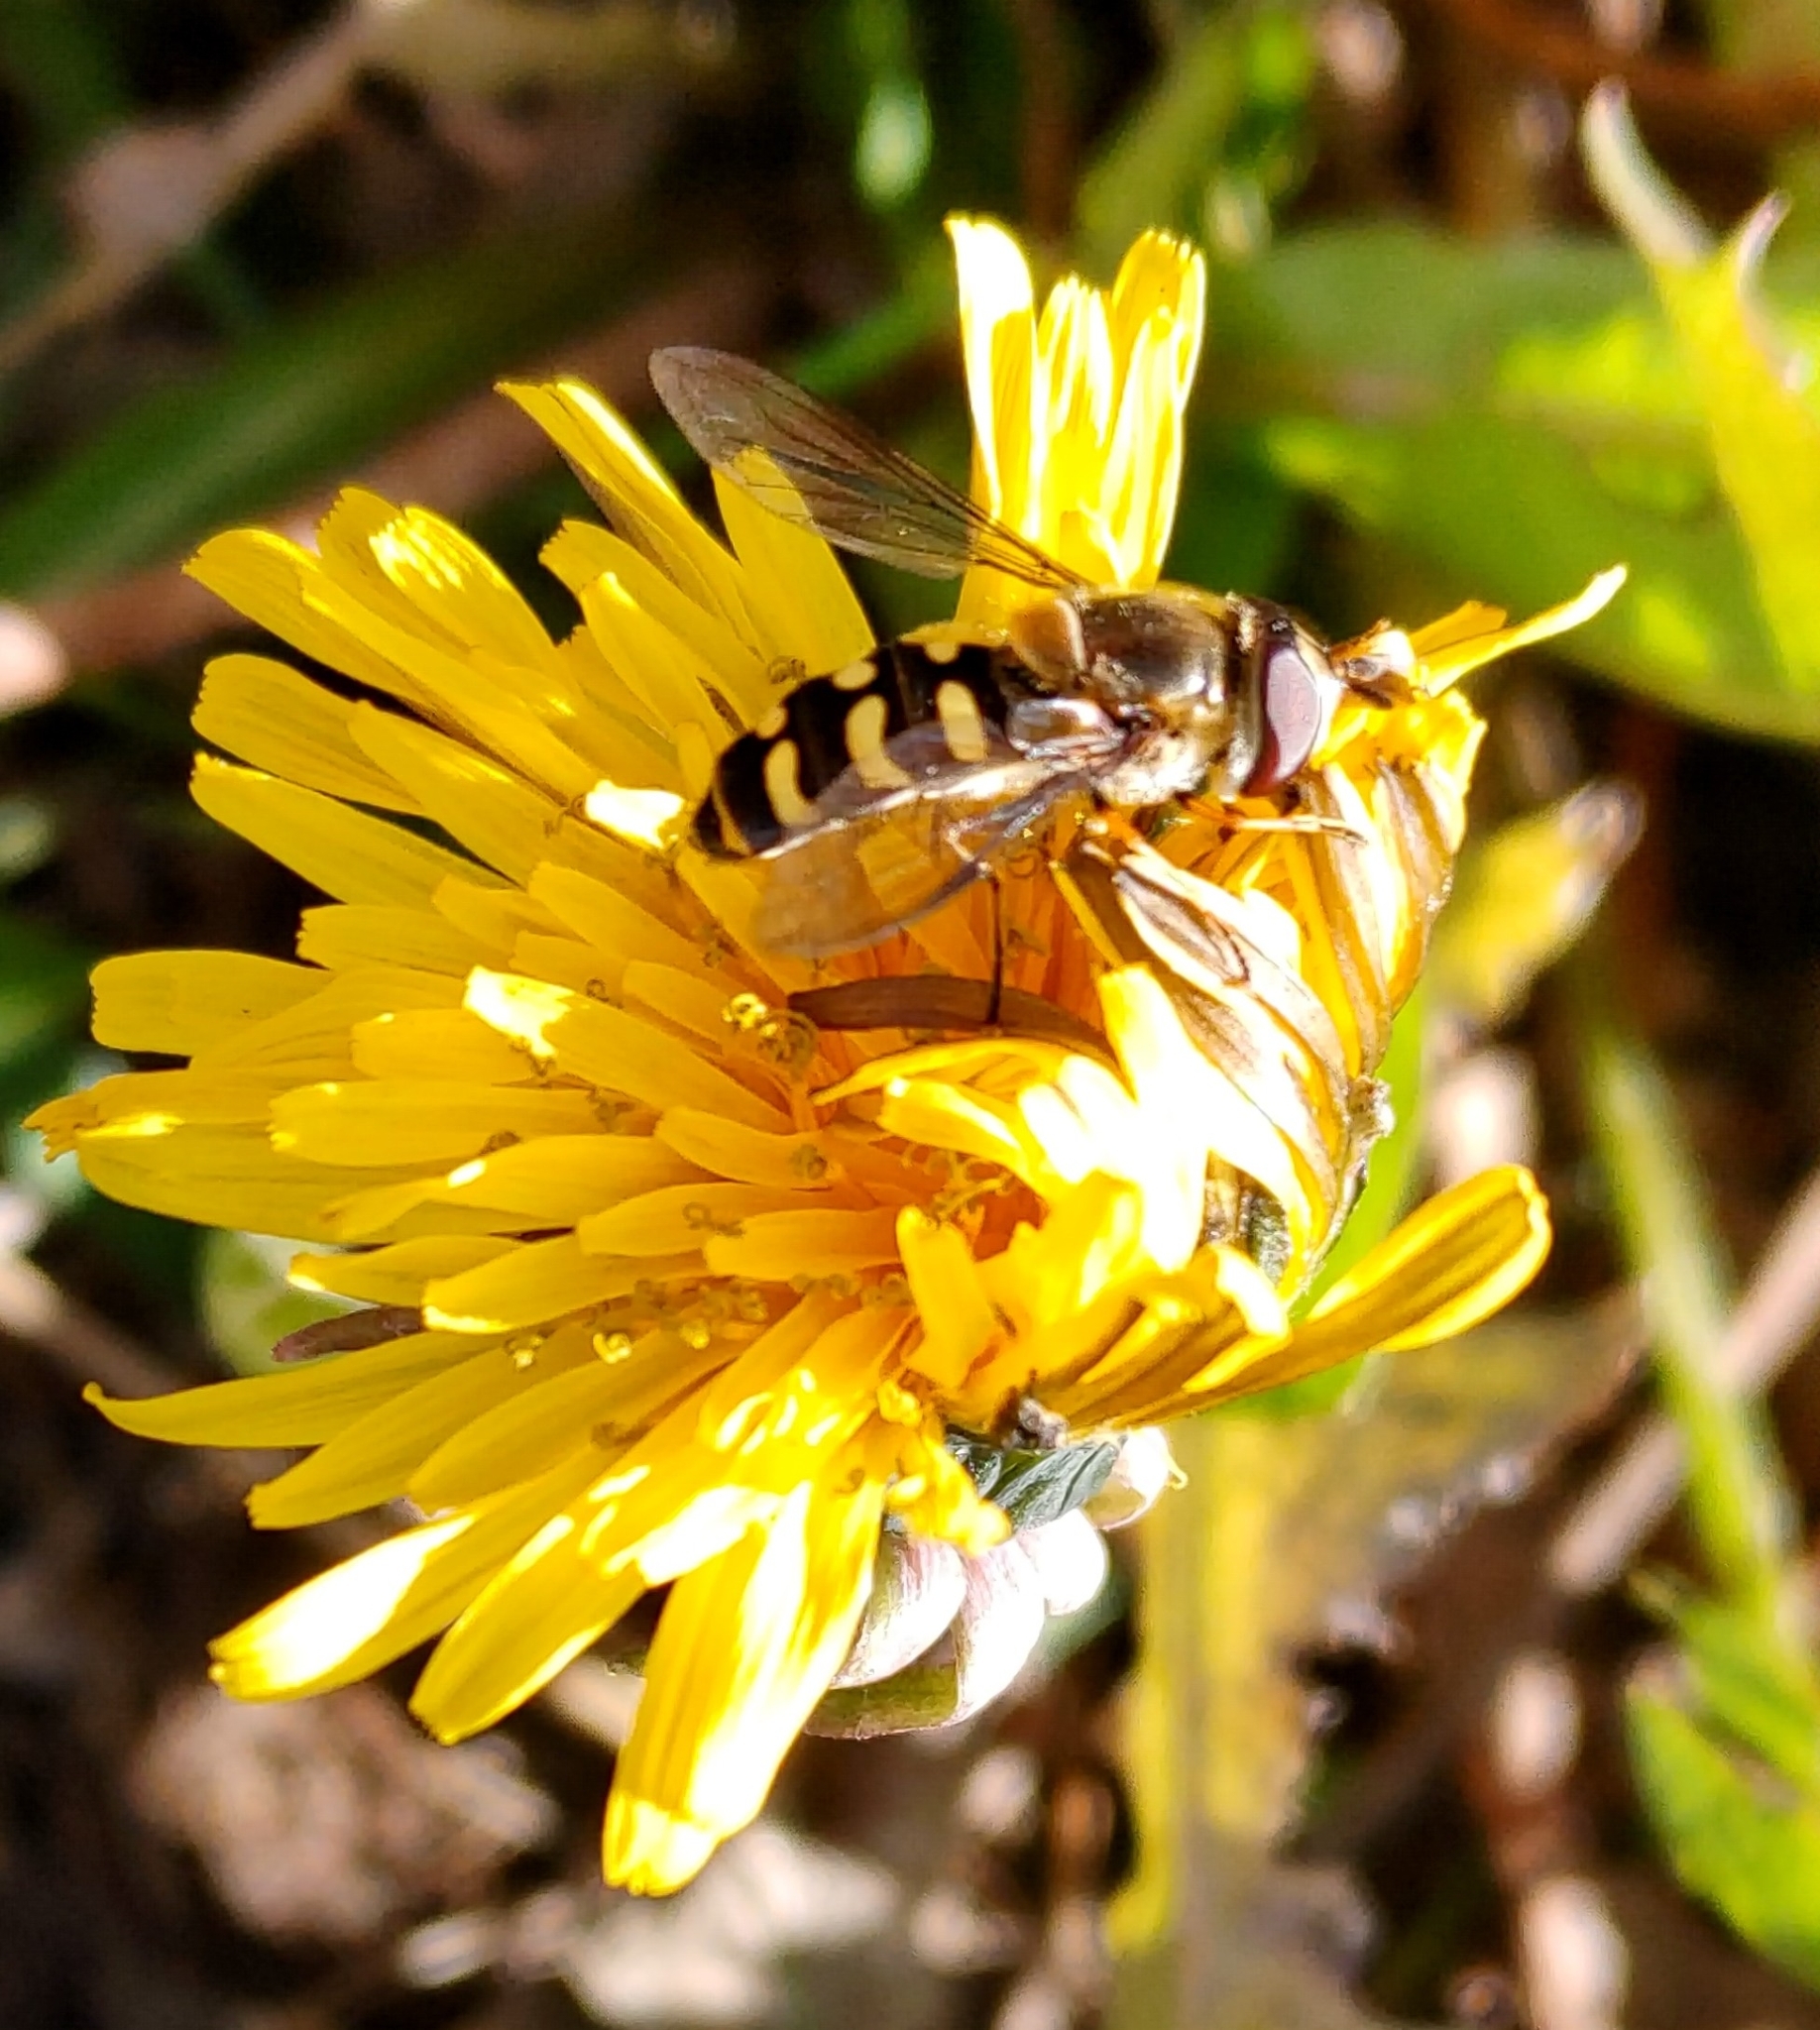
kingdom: Animalia
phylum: Arthropoda
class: Insecta
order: Diptera
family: Syrphidae
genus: Lapposyrphus
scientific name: Lapposyrphus lapponicus
